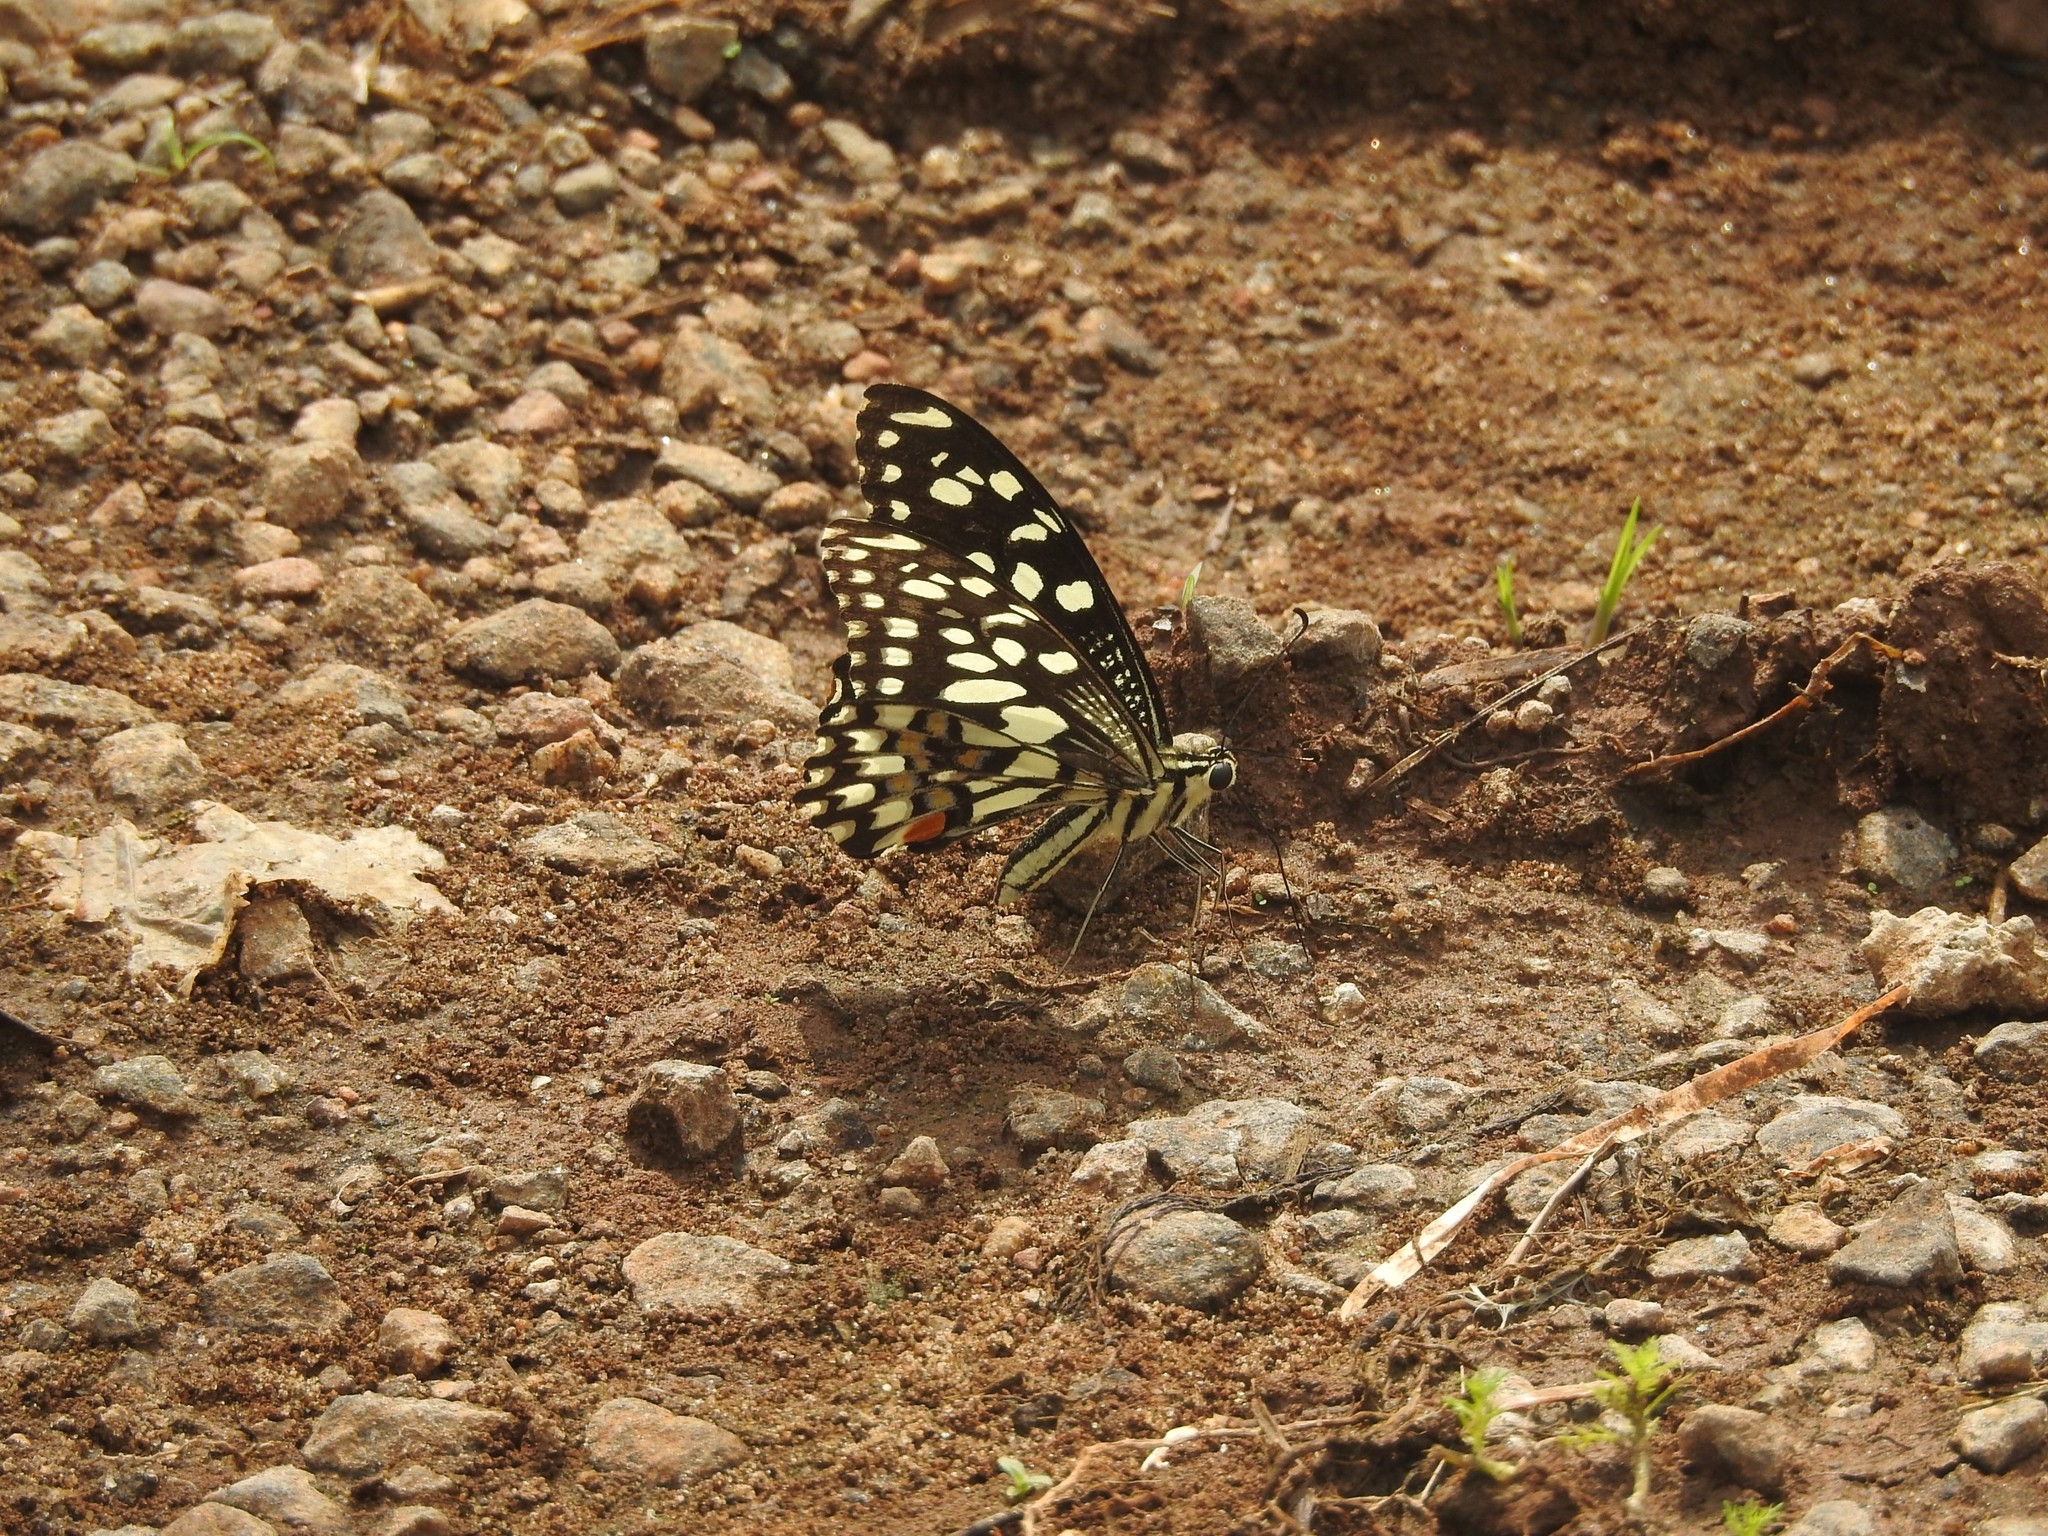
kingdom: Animalia
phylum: Arthropoda
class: Insecta
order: Lepidoptera
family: Papilionidae
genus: Papilio
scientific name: Papilio demoleus
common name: Lime butterfly
